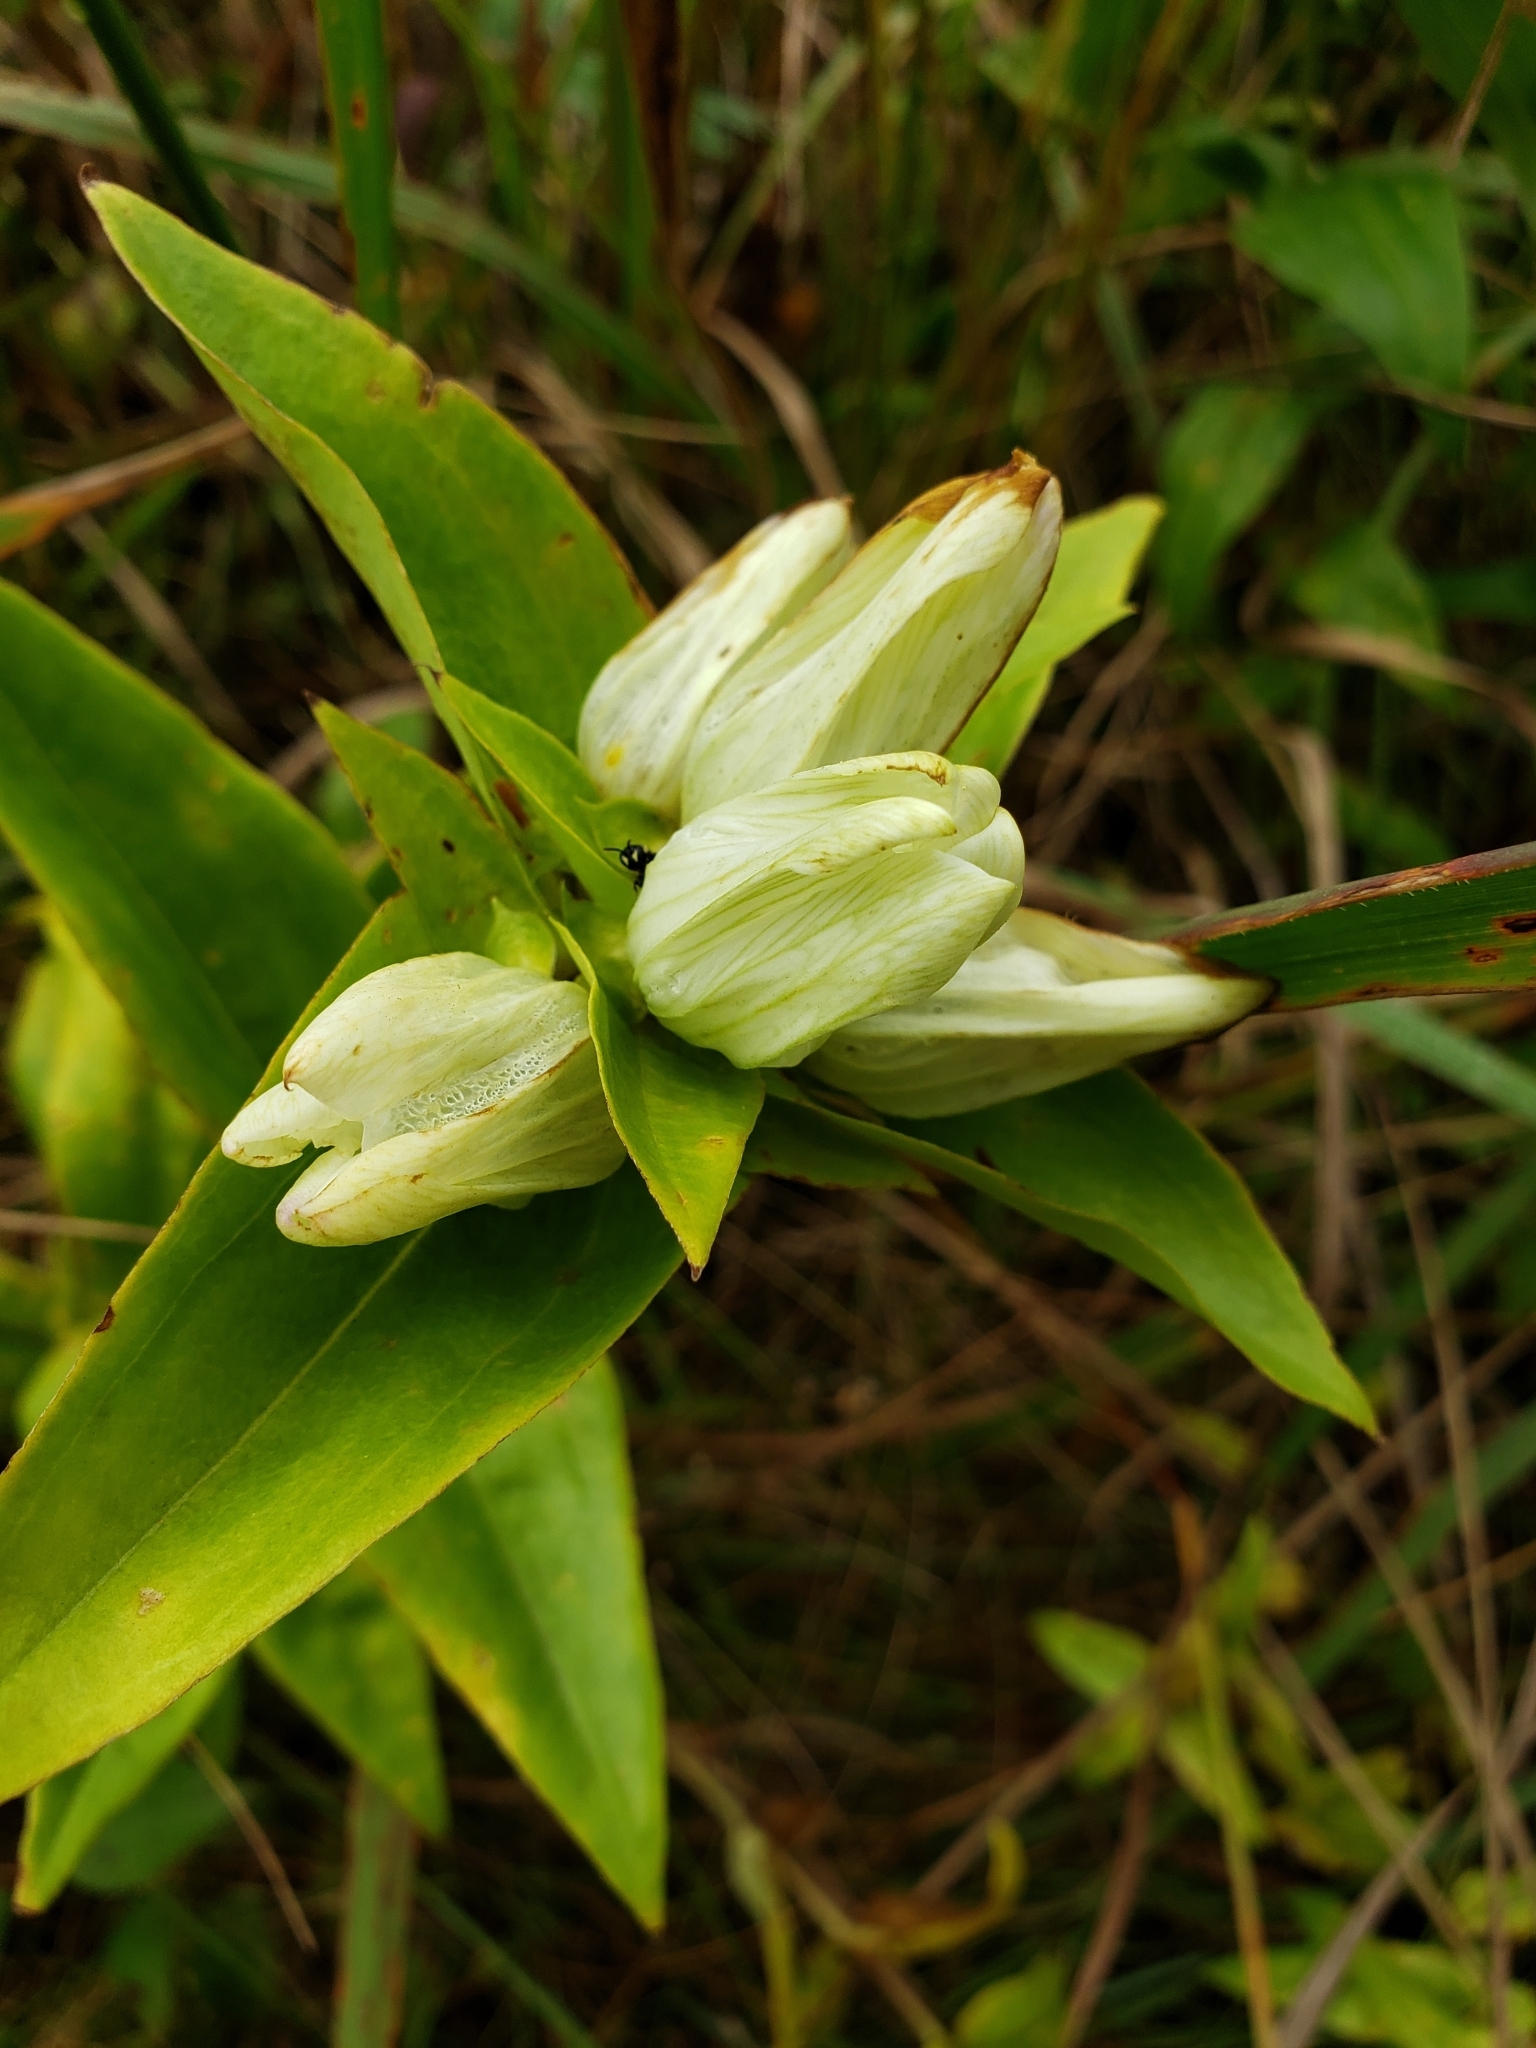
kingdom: Plantae
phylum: Tracheophyta
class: Magnoliopsida
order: Gentianales
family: Gentianaceae
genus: Gentiana
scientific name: Gentiana alba
